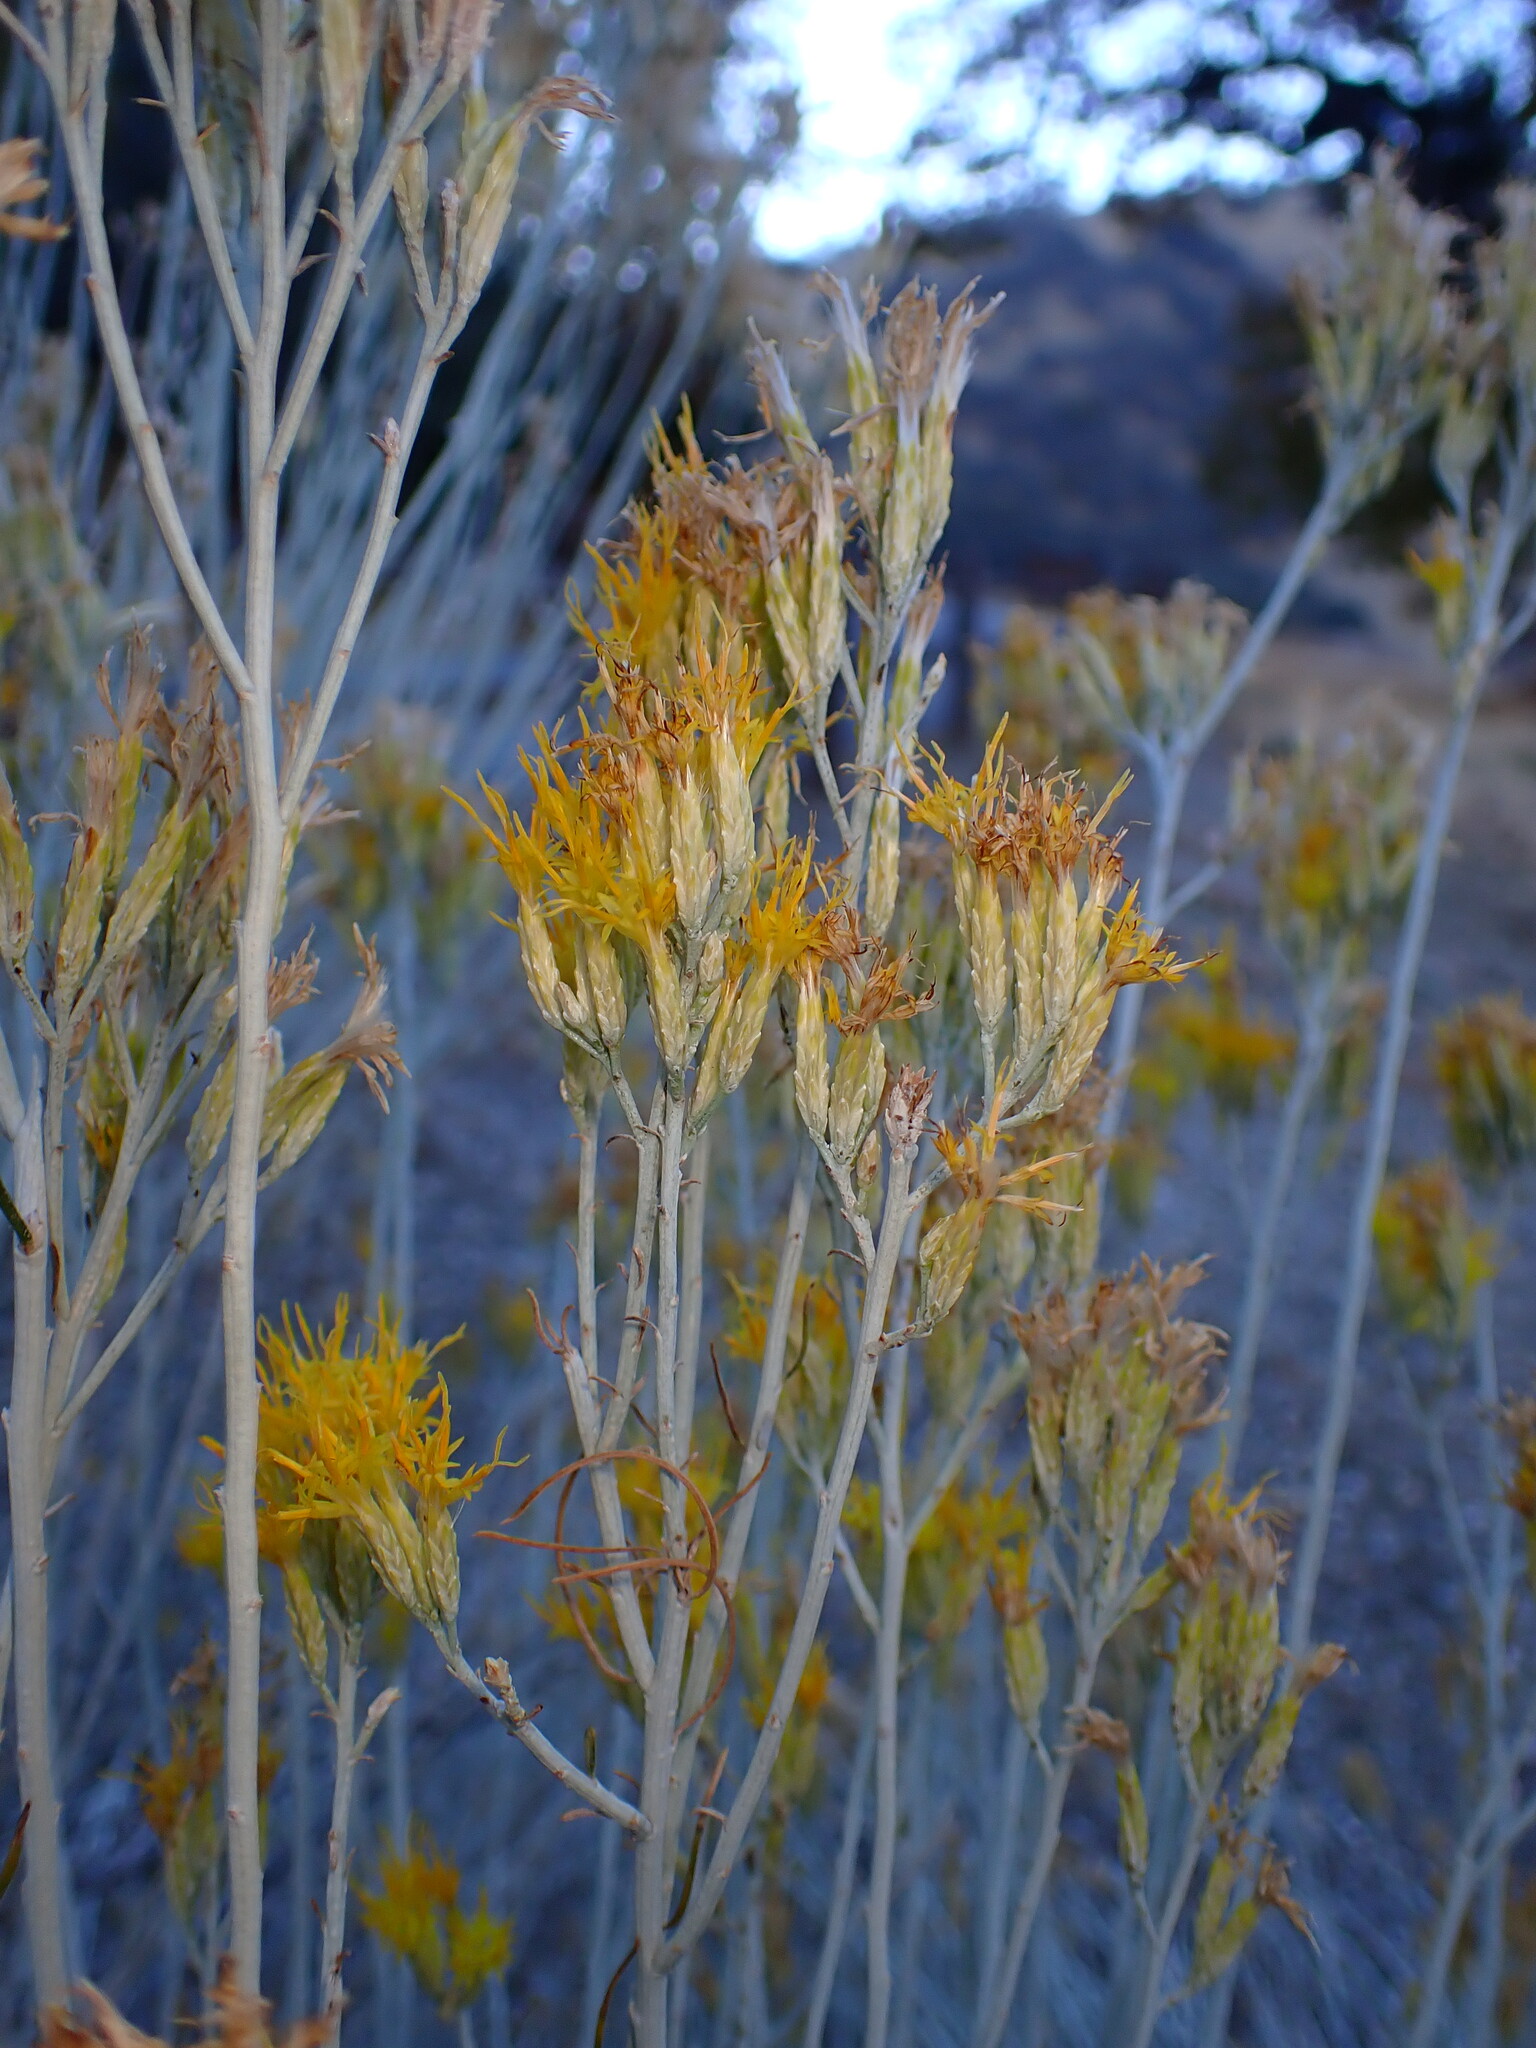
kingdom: Plantae
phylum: Tracheophyta
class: Magnoliopsida
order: Asterales
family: Asteraceae
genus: Ericameria
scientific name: Ericameria nauseosa
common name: Rubber rabbitbrush
